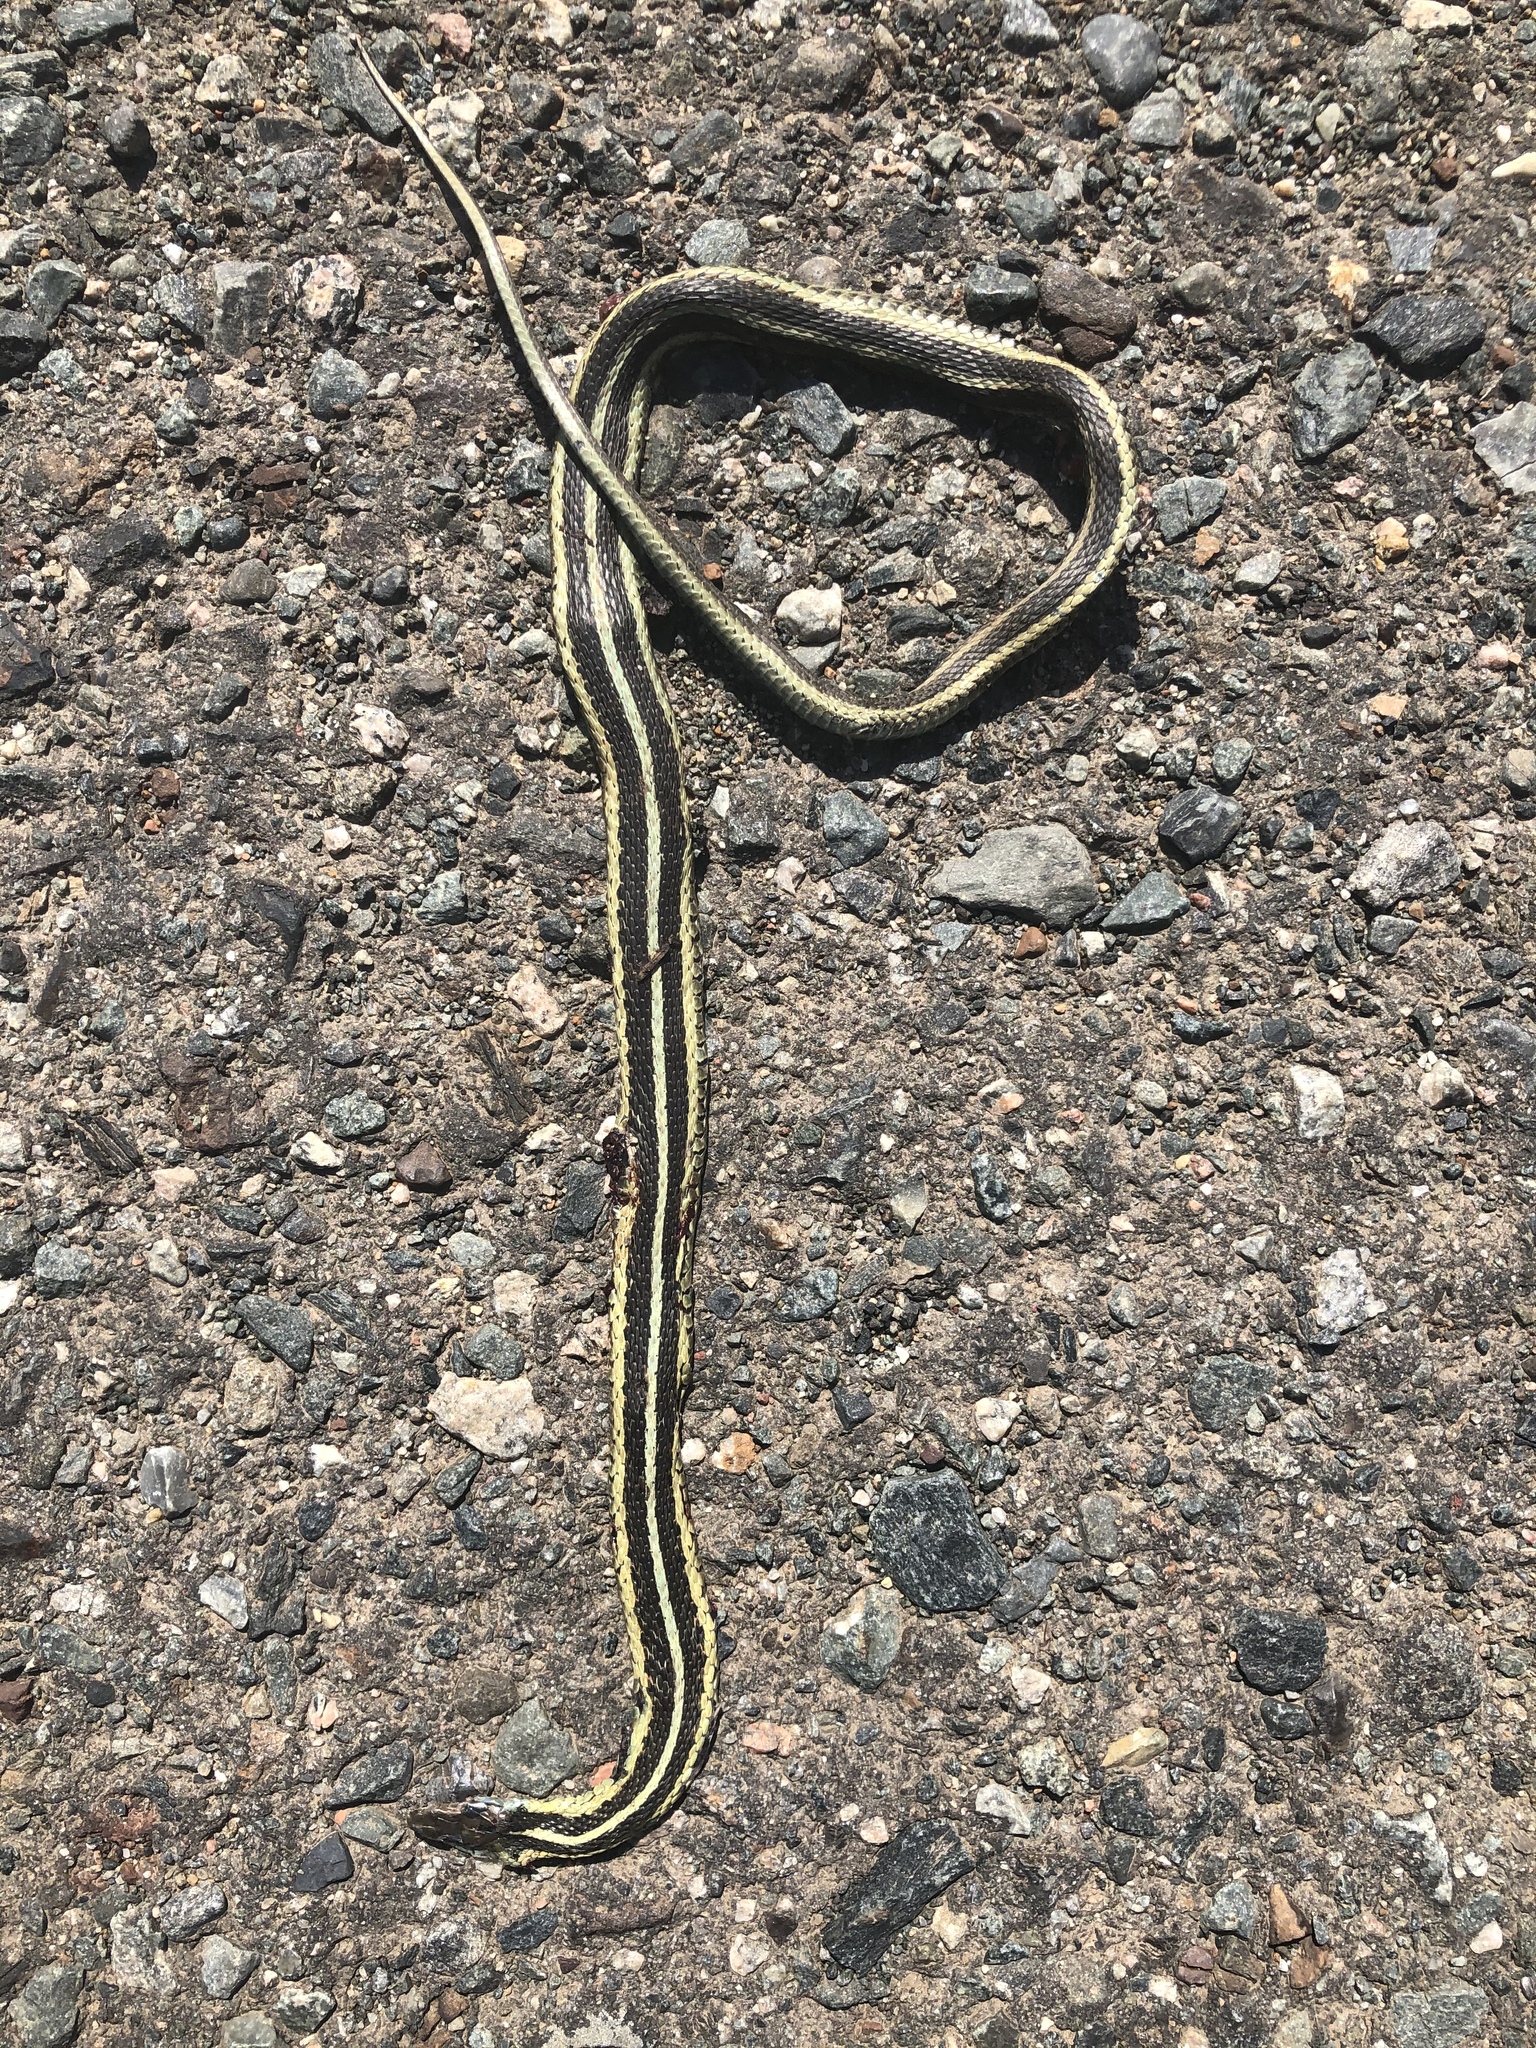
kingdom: Animalia
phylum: Chordata
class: Squamata
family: Colubridae
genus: Thamnophis
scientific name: Thamnophis sirtalis
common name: Common garter snake
